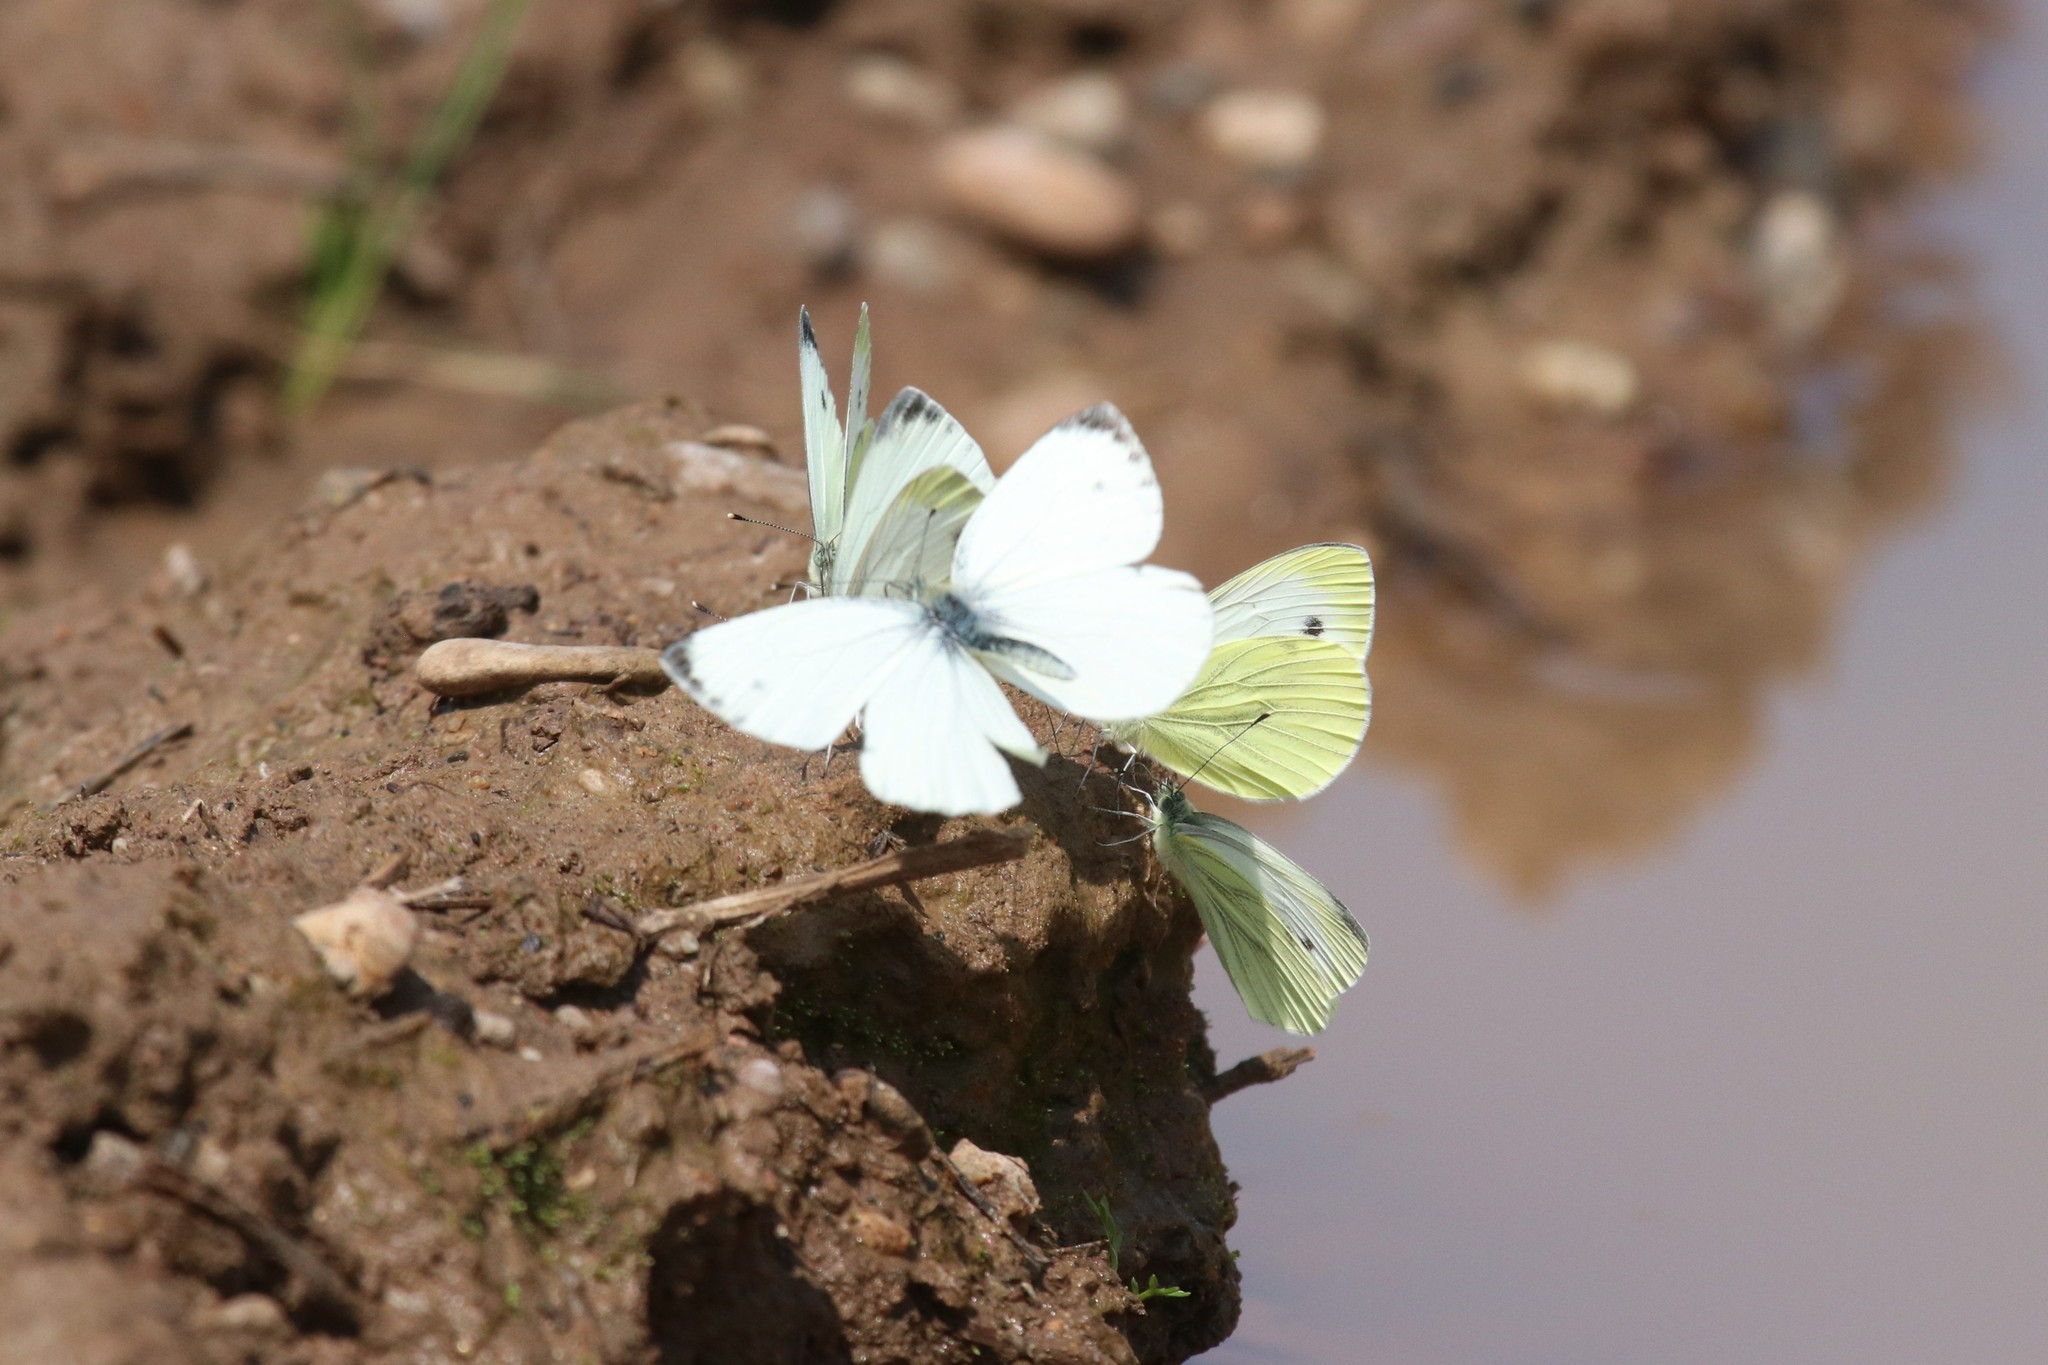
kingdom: Animalia
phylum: Arthropoda
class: Insecta
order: Lepidoptera
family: Pieridae
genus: Pieris
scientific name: Pieris napi
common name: Green-veined white
